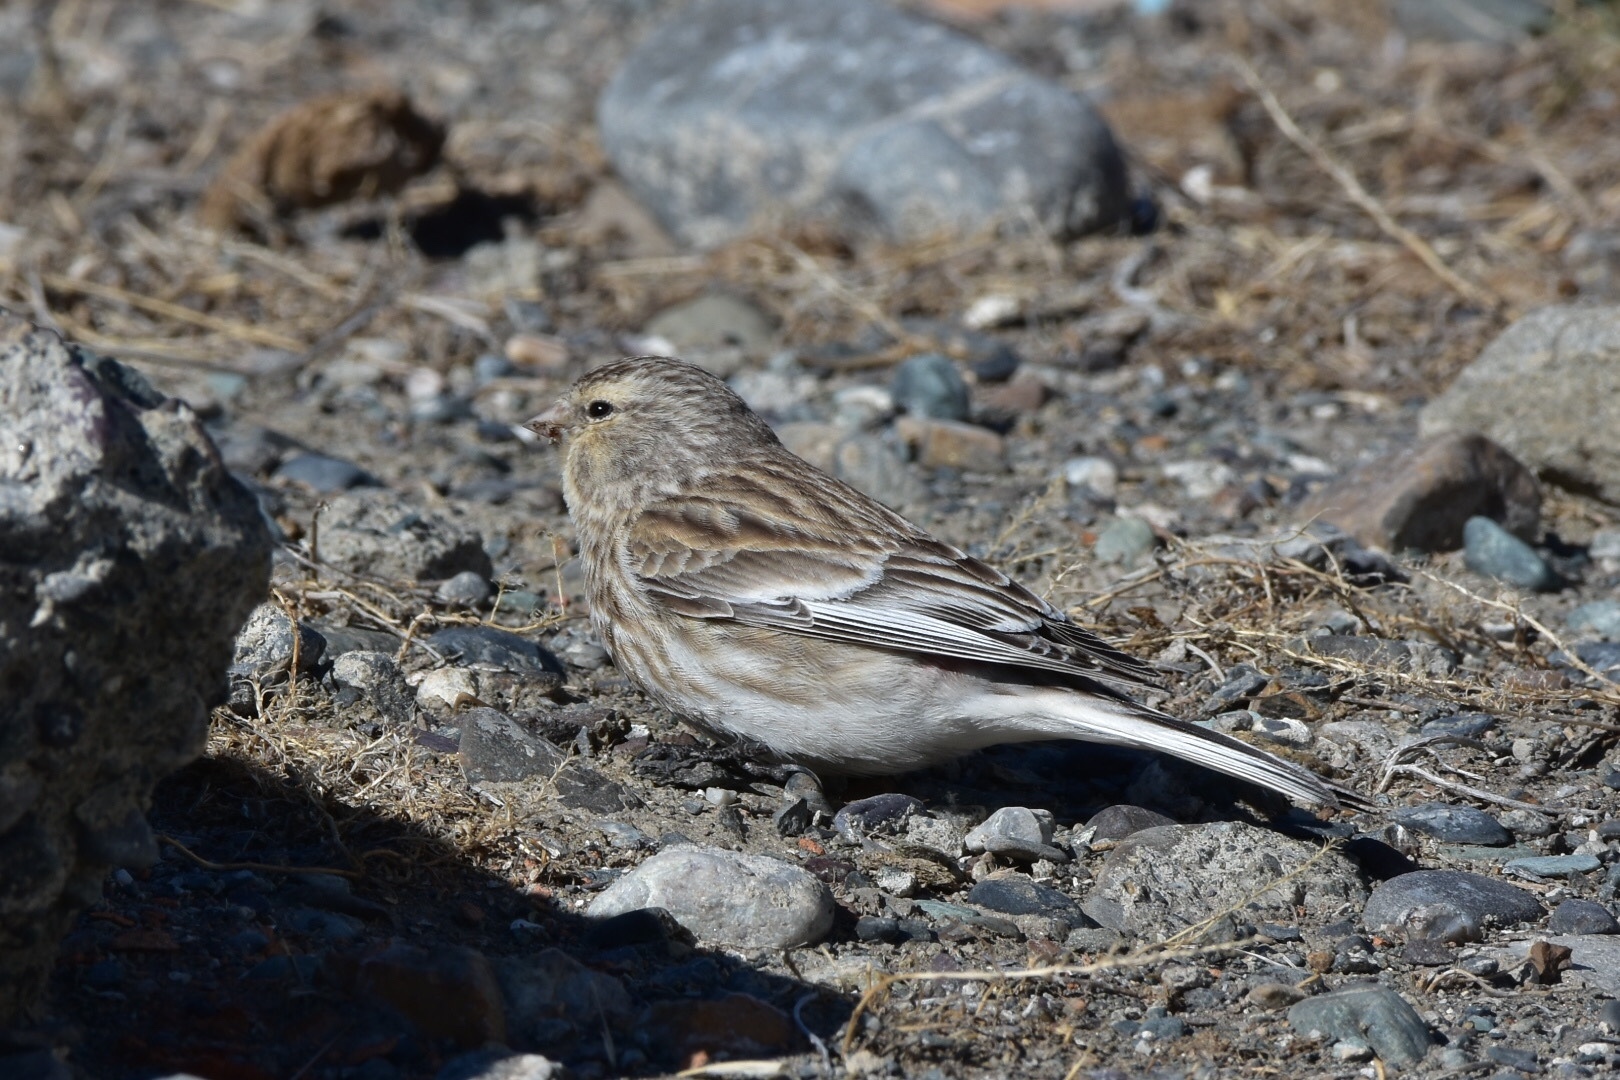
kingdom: Animalia
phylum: Chordata
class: Aves
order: Passeriformes
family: Fringillidae
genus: Linaria
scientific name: Linaria flavirostris
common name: Twite
